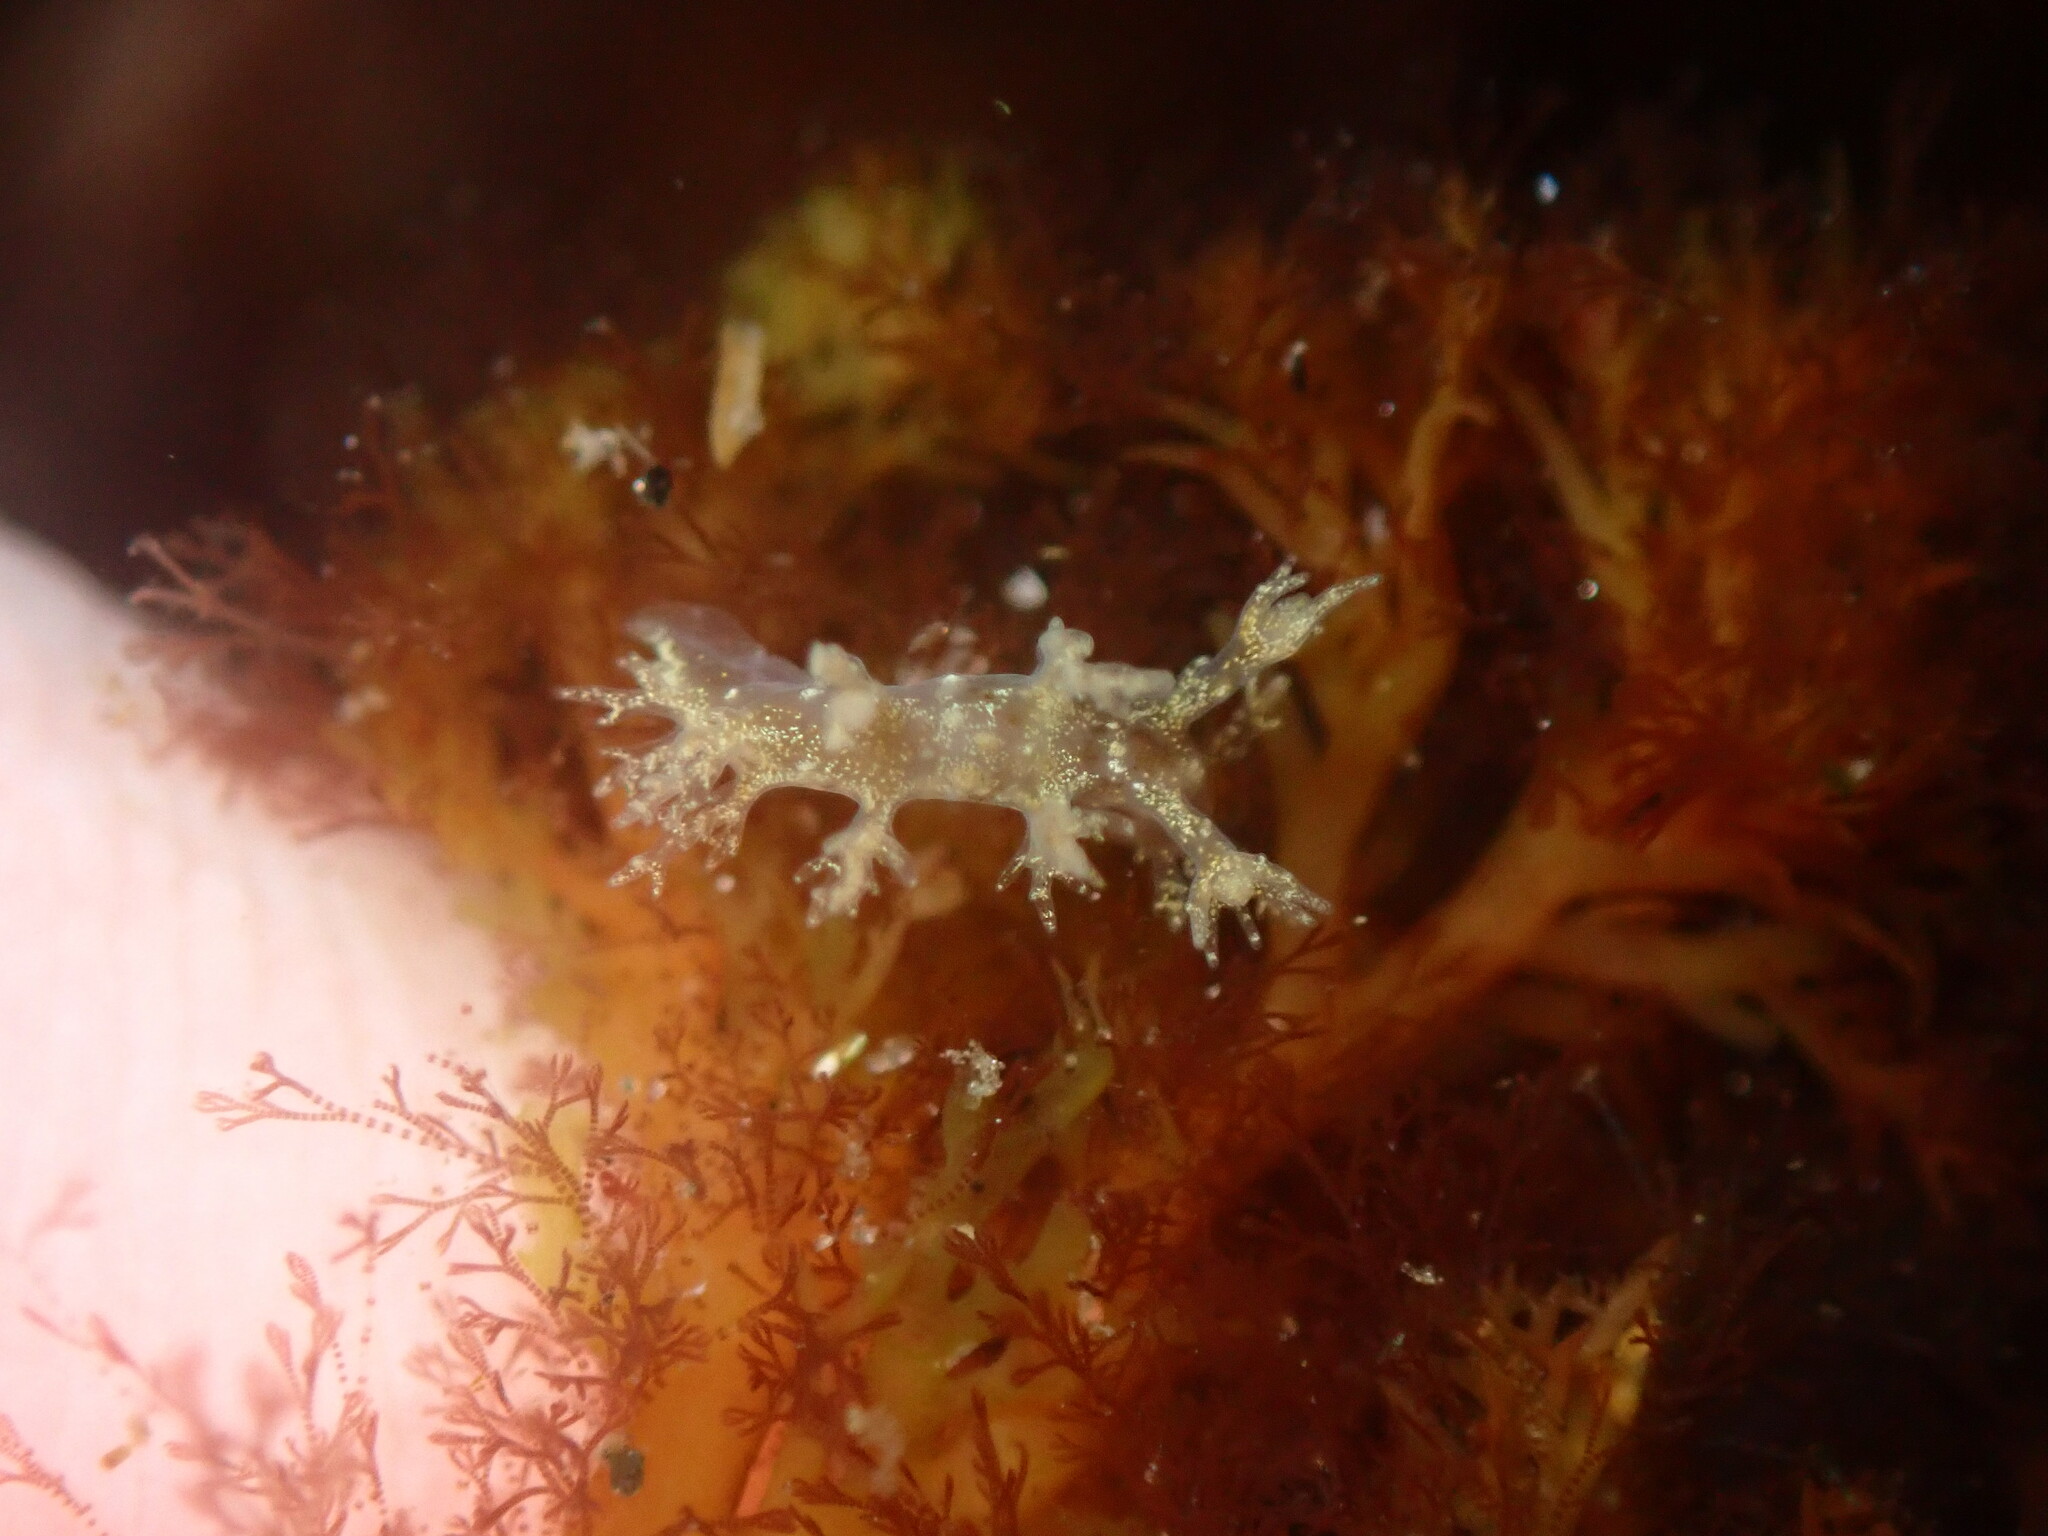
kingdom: Animalia
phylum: Mollusca
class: Gastropoda
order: Nudibranchia
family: Dendronotidae
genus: Dendronotus
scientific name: Dendronotus venustus
